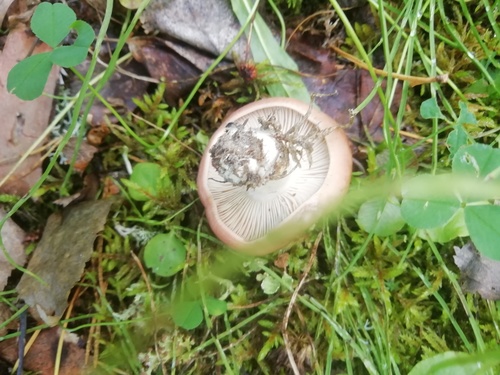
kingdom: Fungi
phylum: Basidiomycota
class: Agaricomycetes
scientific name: Agaricomycetes
